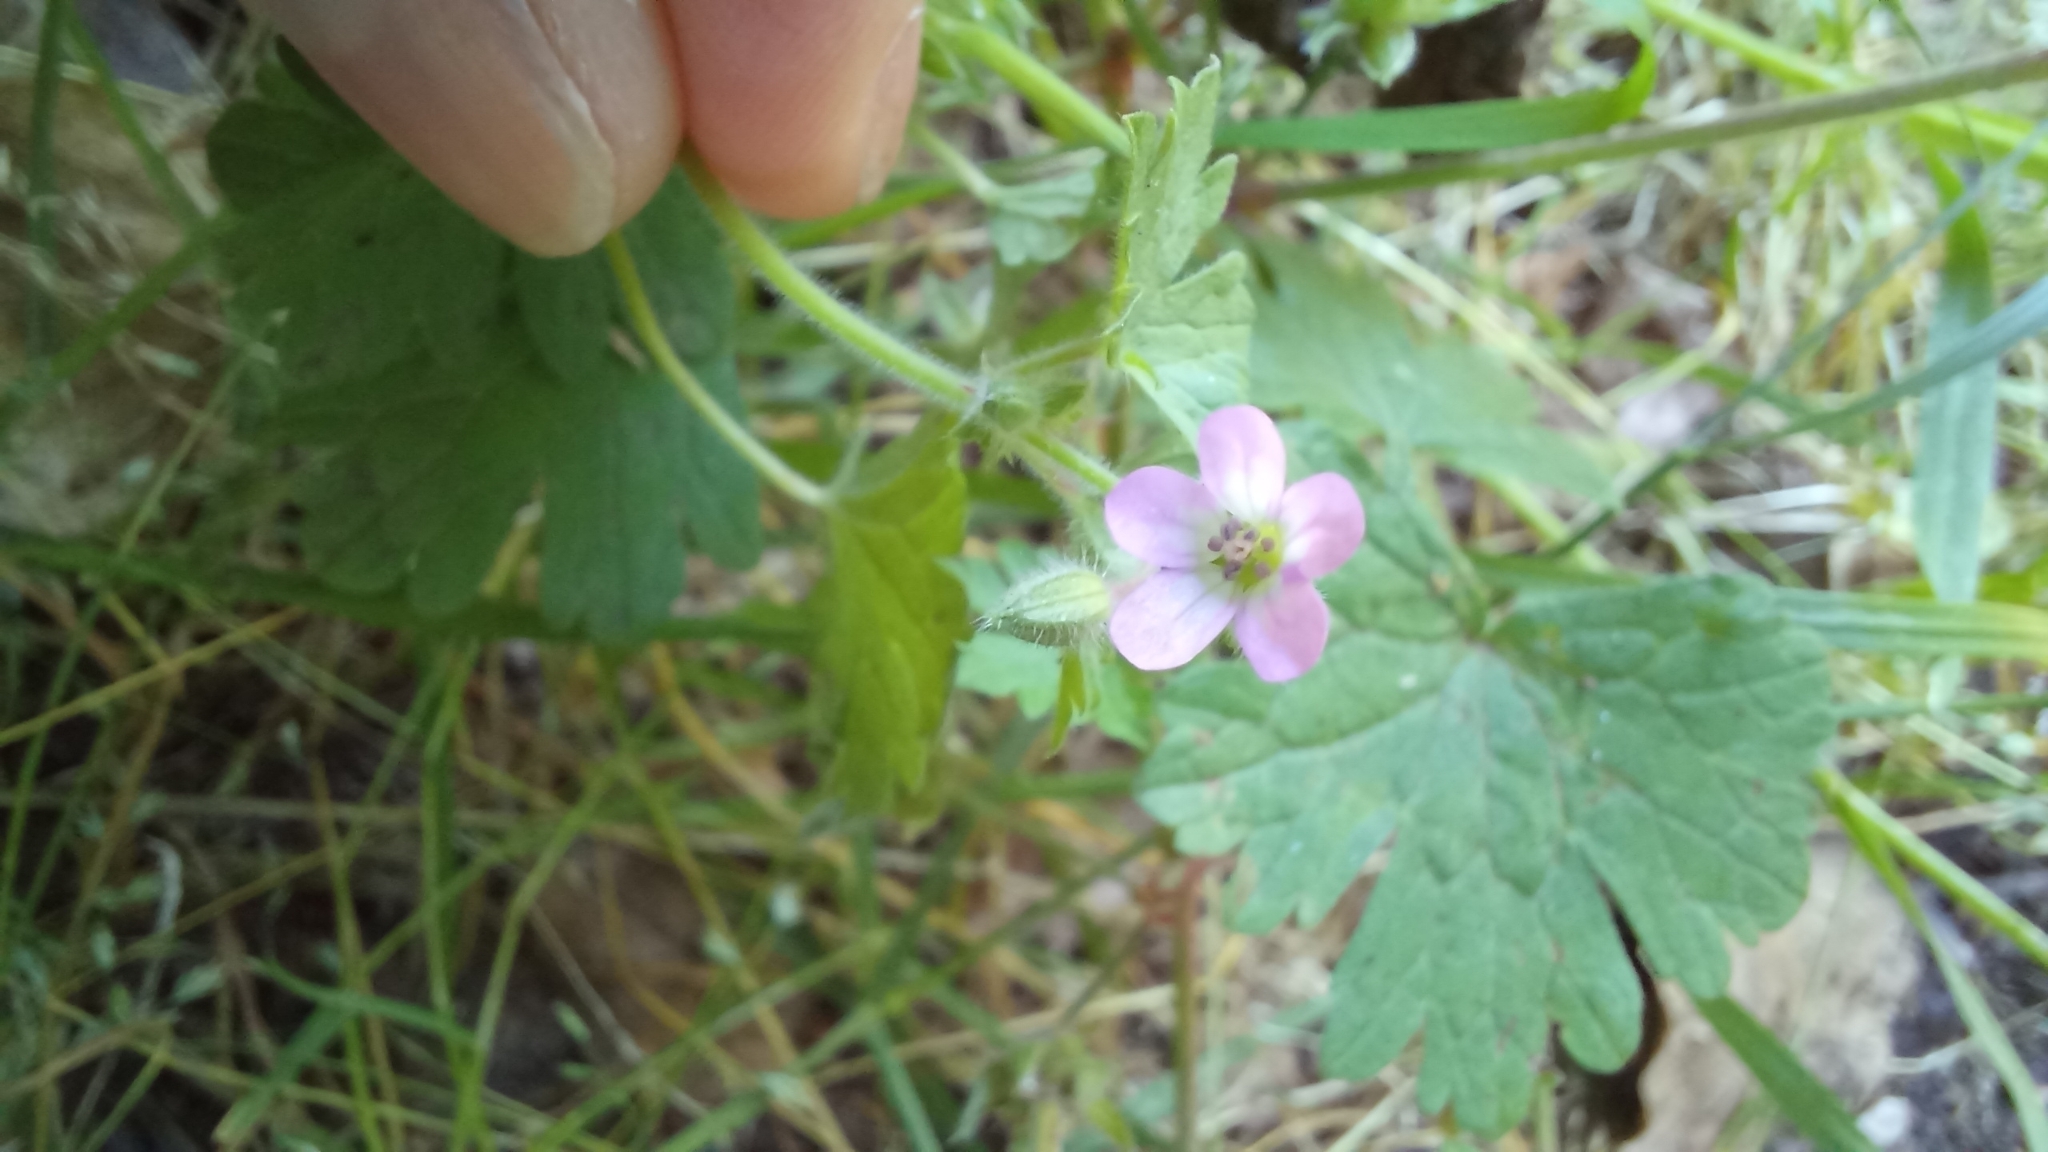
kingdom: Plantae
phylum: Tracheophyta
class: Magnoliopsida
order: Geraniales
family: Geraniaceae
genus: Geranium
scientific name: Geranium rotundifolium
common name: Round-leaved crane's-bill
